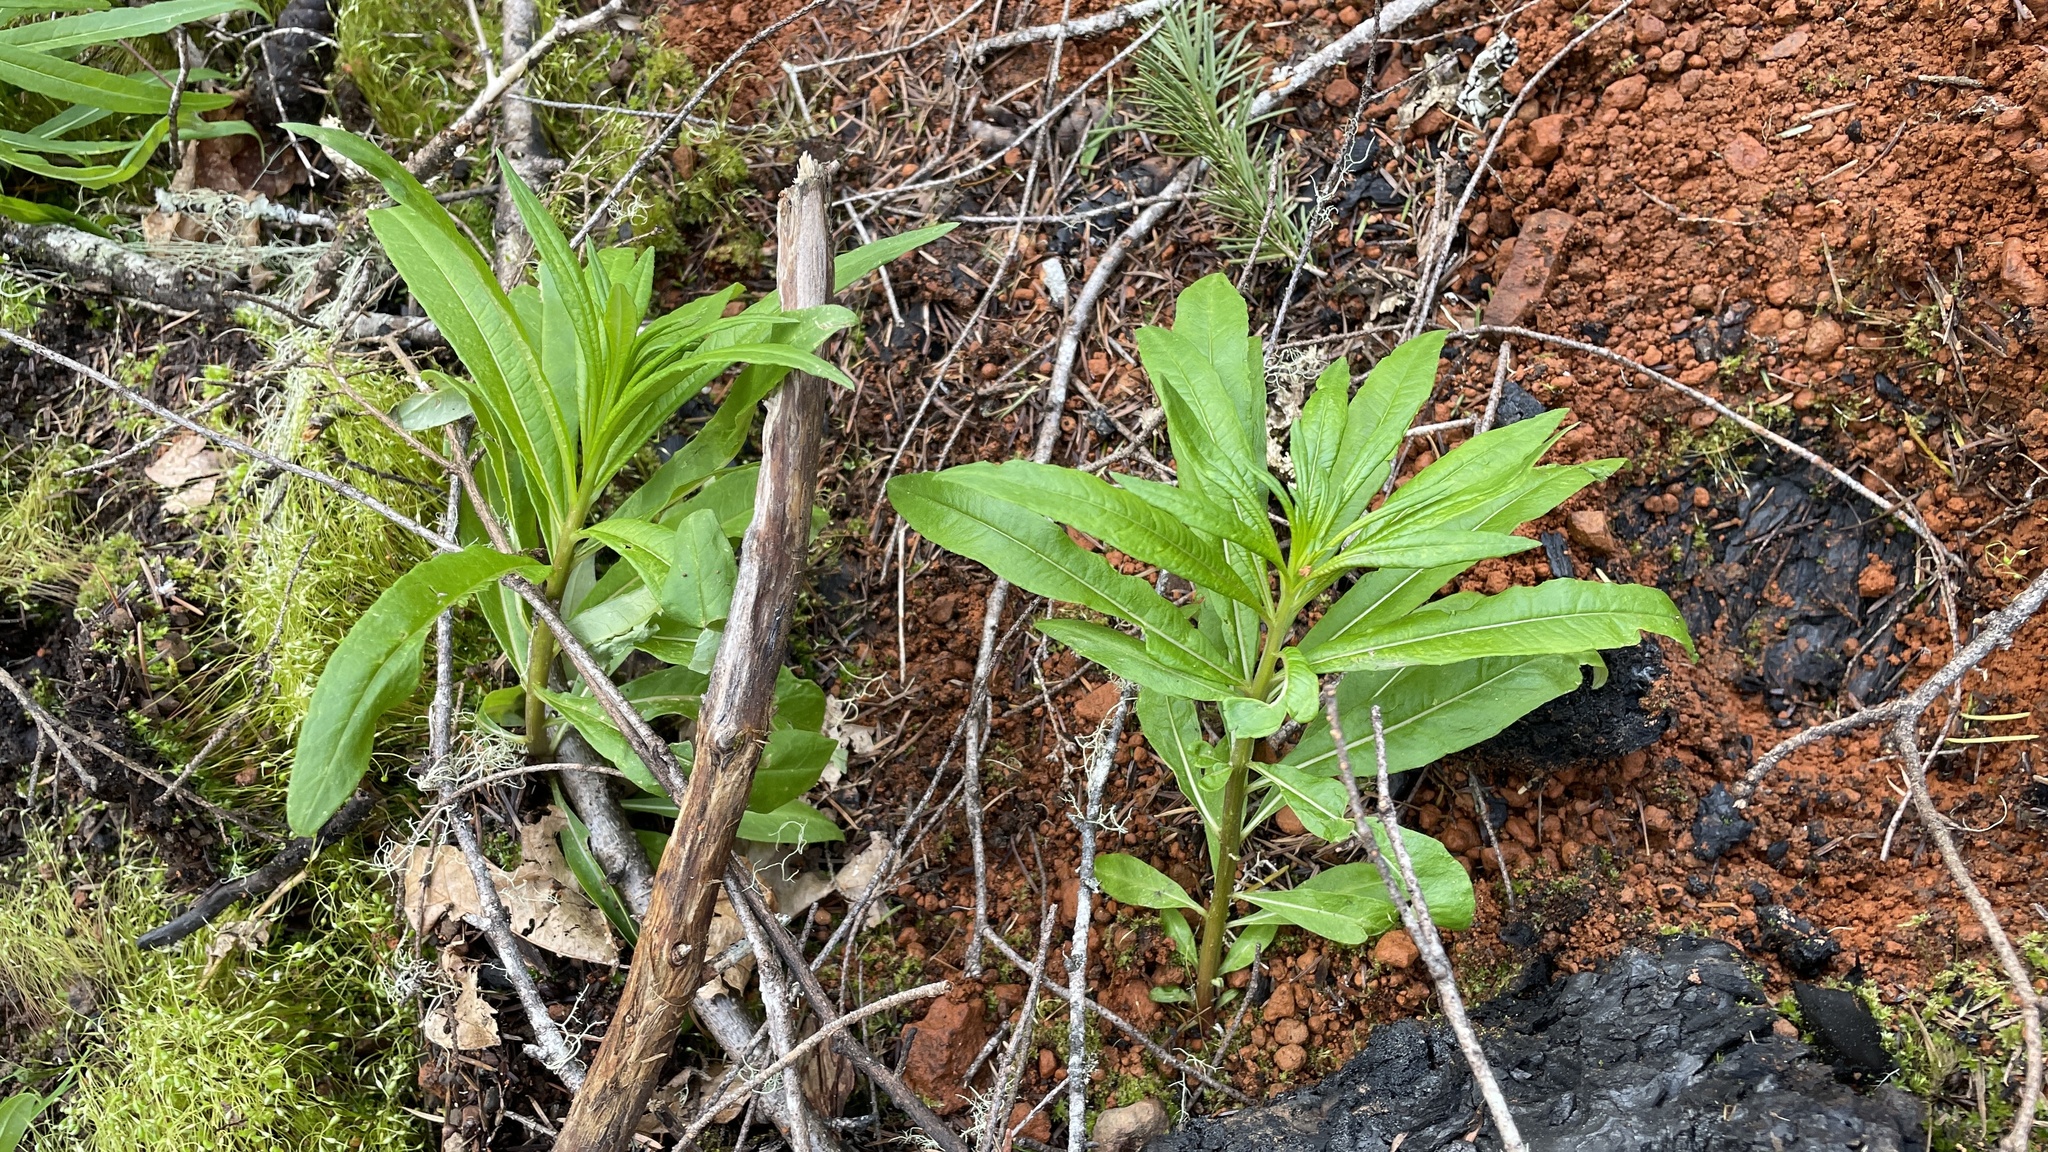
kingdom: Plantae
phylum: Tracheophyta
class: Magnoliopsida
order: Myrtales
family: Onagraceae
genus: Chamaenerion
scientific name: Chamaenerion angustifolium
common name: Fireweed
